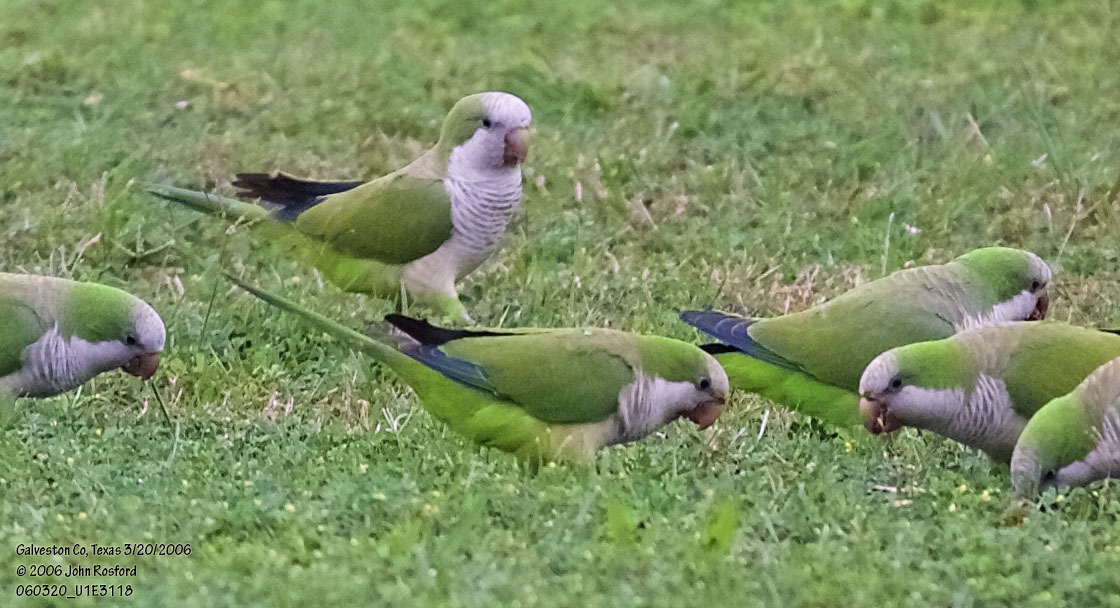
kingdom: Animalia
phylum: Chordata
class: Aves
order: Psittaciformes
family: Psittacidae
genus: Myiopsitta
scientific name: Myiopsitta monachus
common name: Monk parakeet
